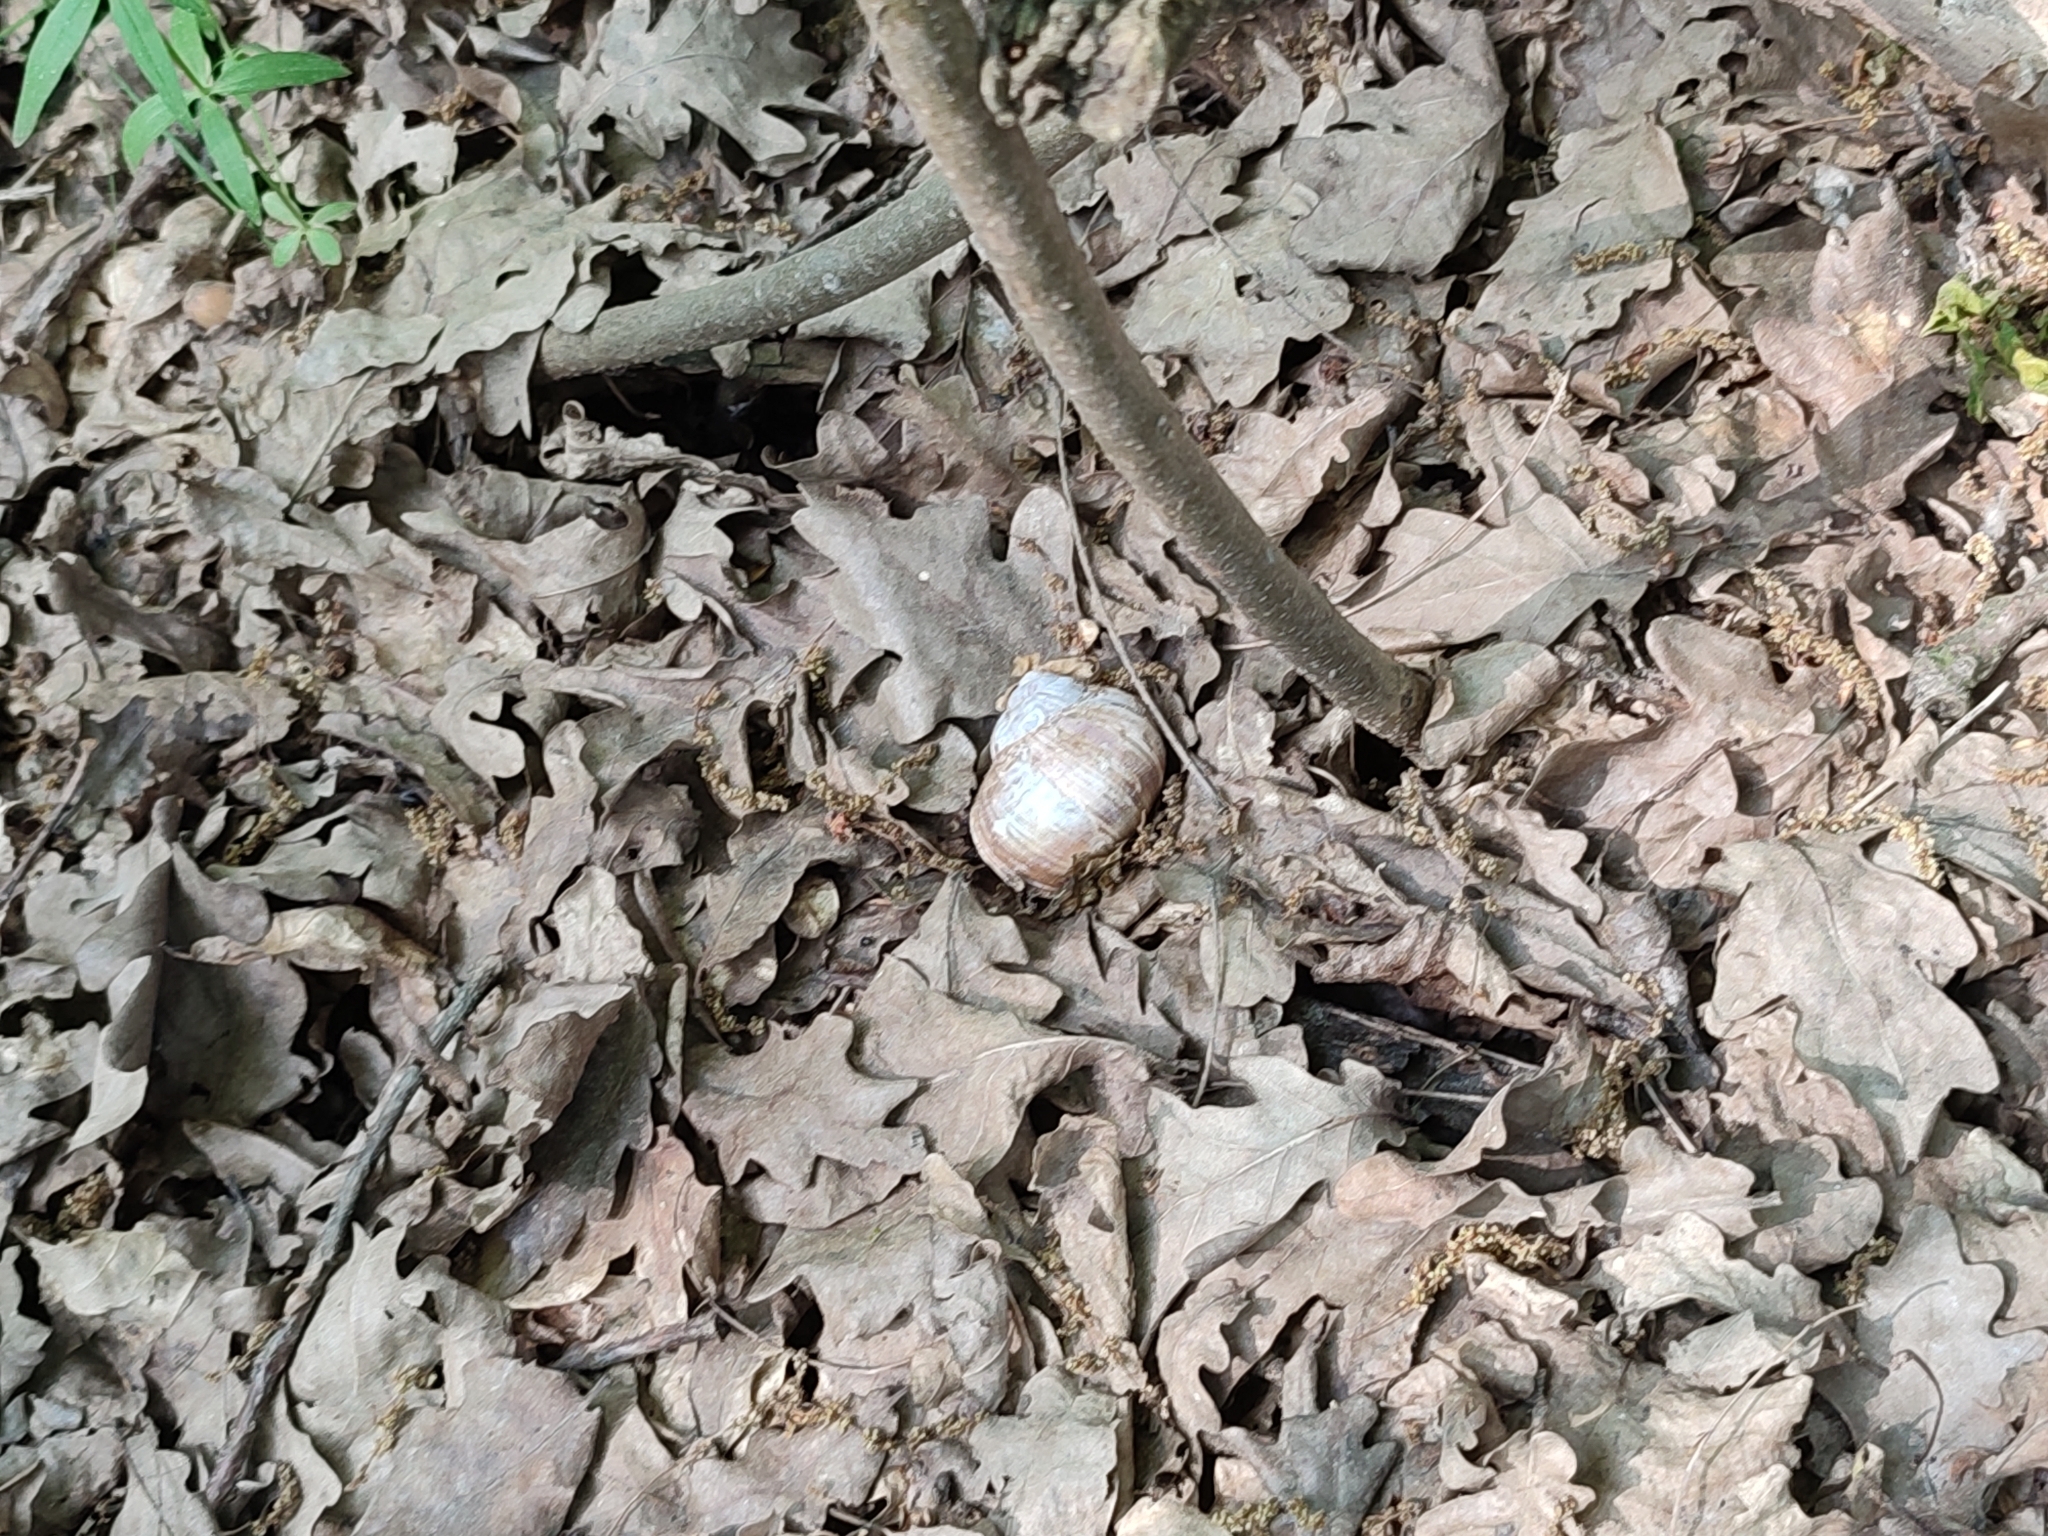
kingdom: Animalia
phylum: Mollusca
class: Gastropoda
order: Stylommatophora
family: Helicidae
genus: Helix
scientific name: Helix pomatia
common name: Roman snail
